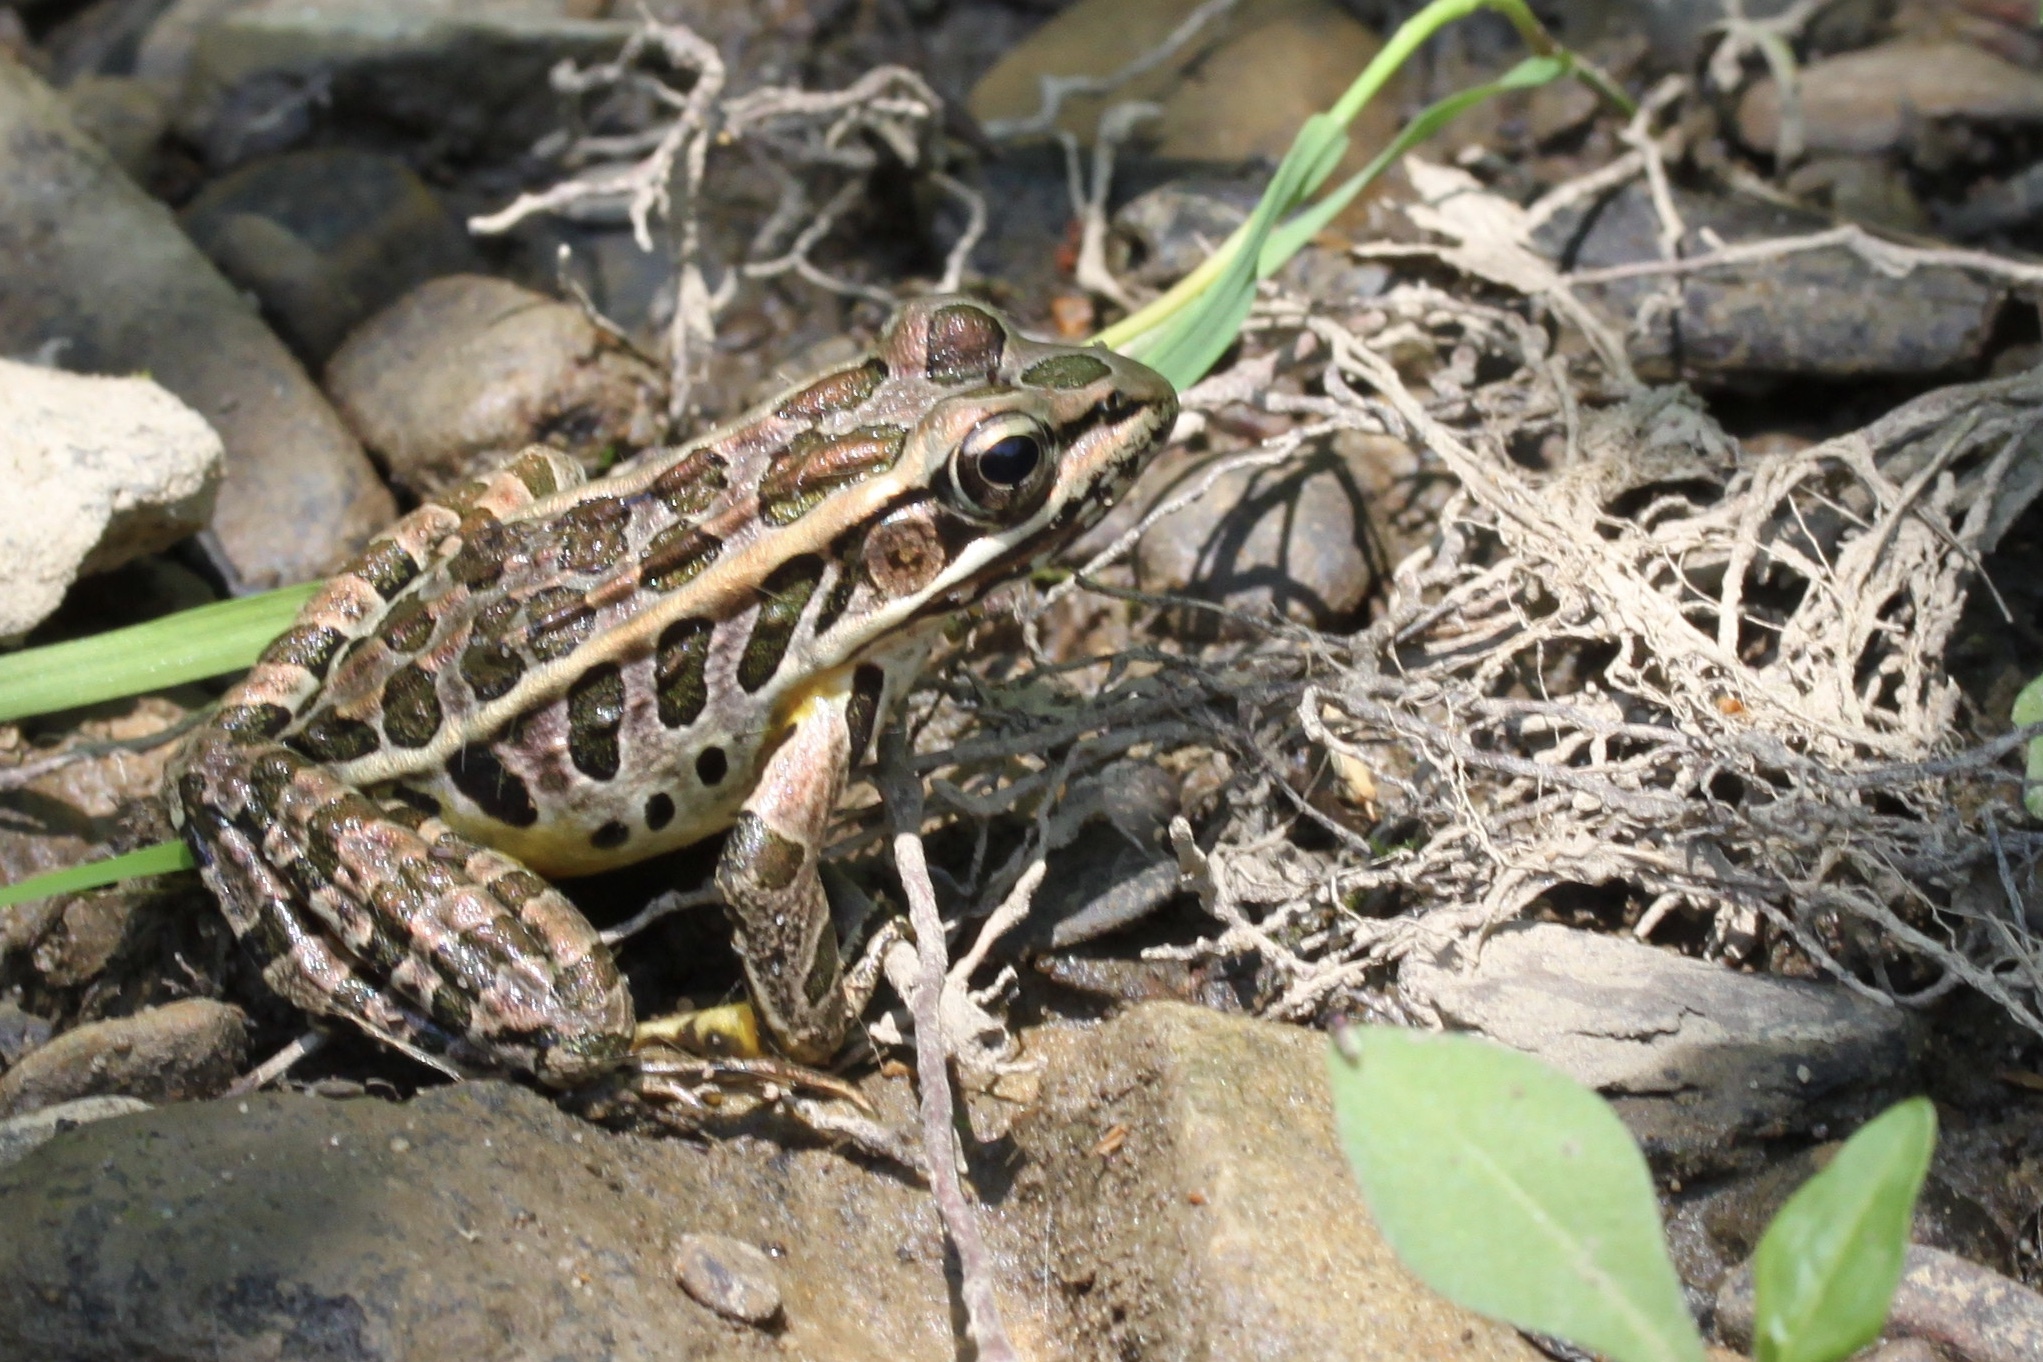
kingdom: Animalia
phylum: Chordata
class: Amphibia
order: Anura
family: Ranidae
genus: Lithobates
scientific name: Lithobates palustris
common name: Pickerel frog
